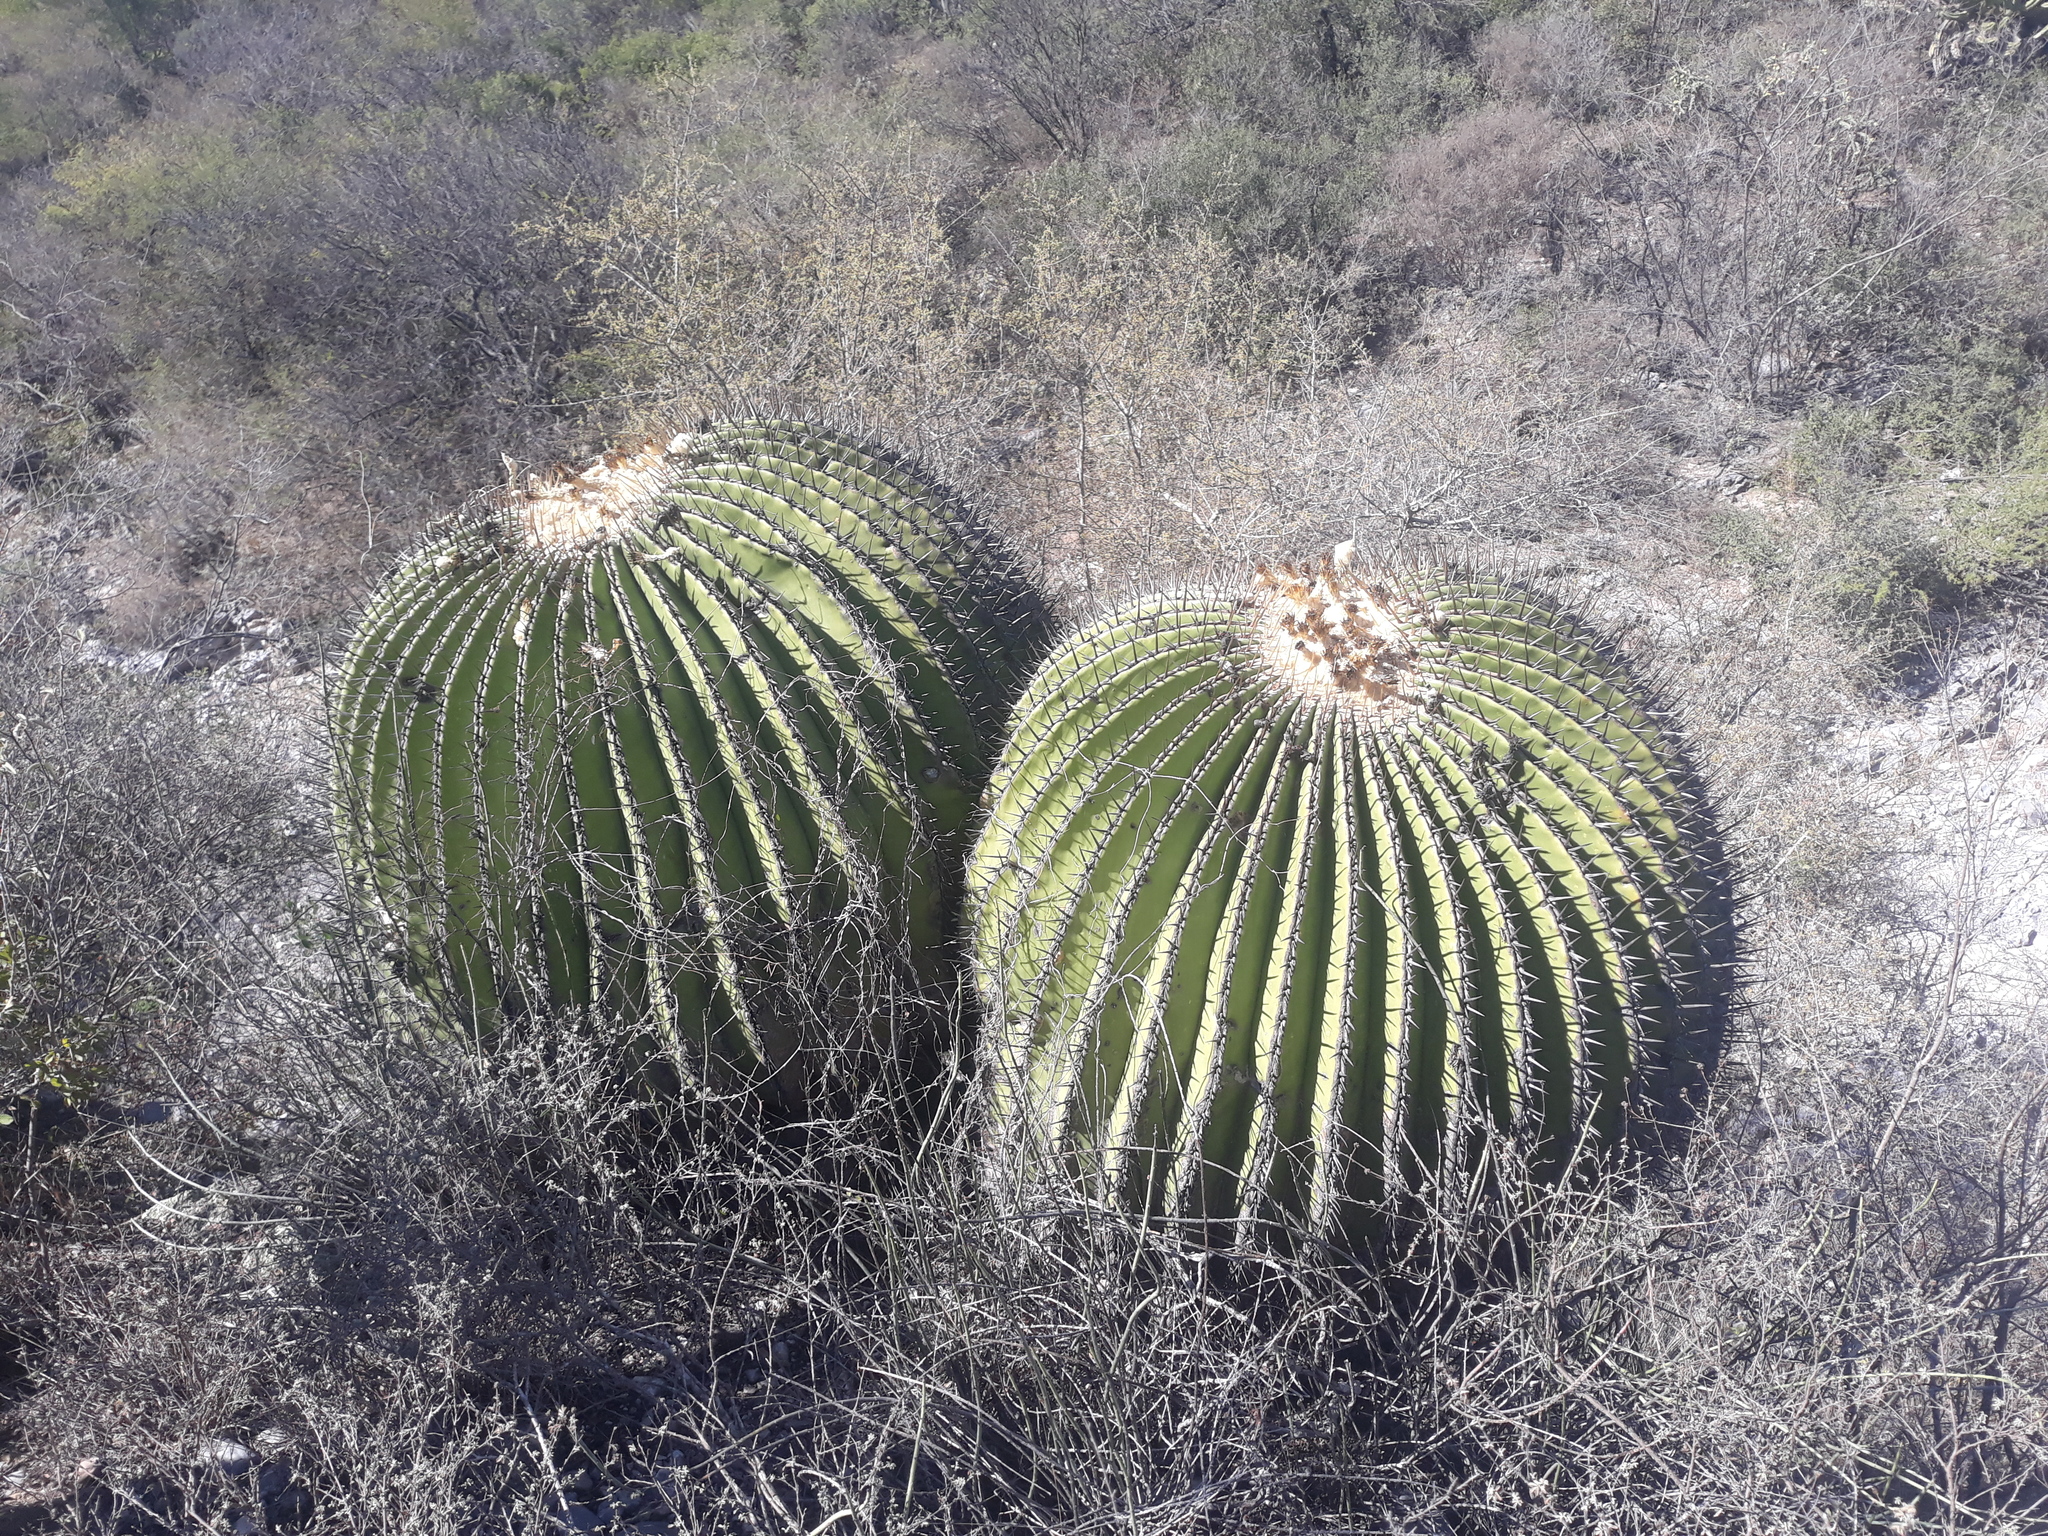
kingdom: Plantae
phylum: Tracheophyta
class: Magnoliopsida
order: Caryophyllales
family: Cactaceae
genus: Echinocactus
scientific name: Echinocactus platyacanthus
